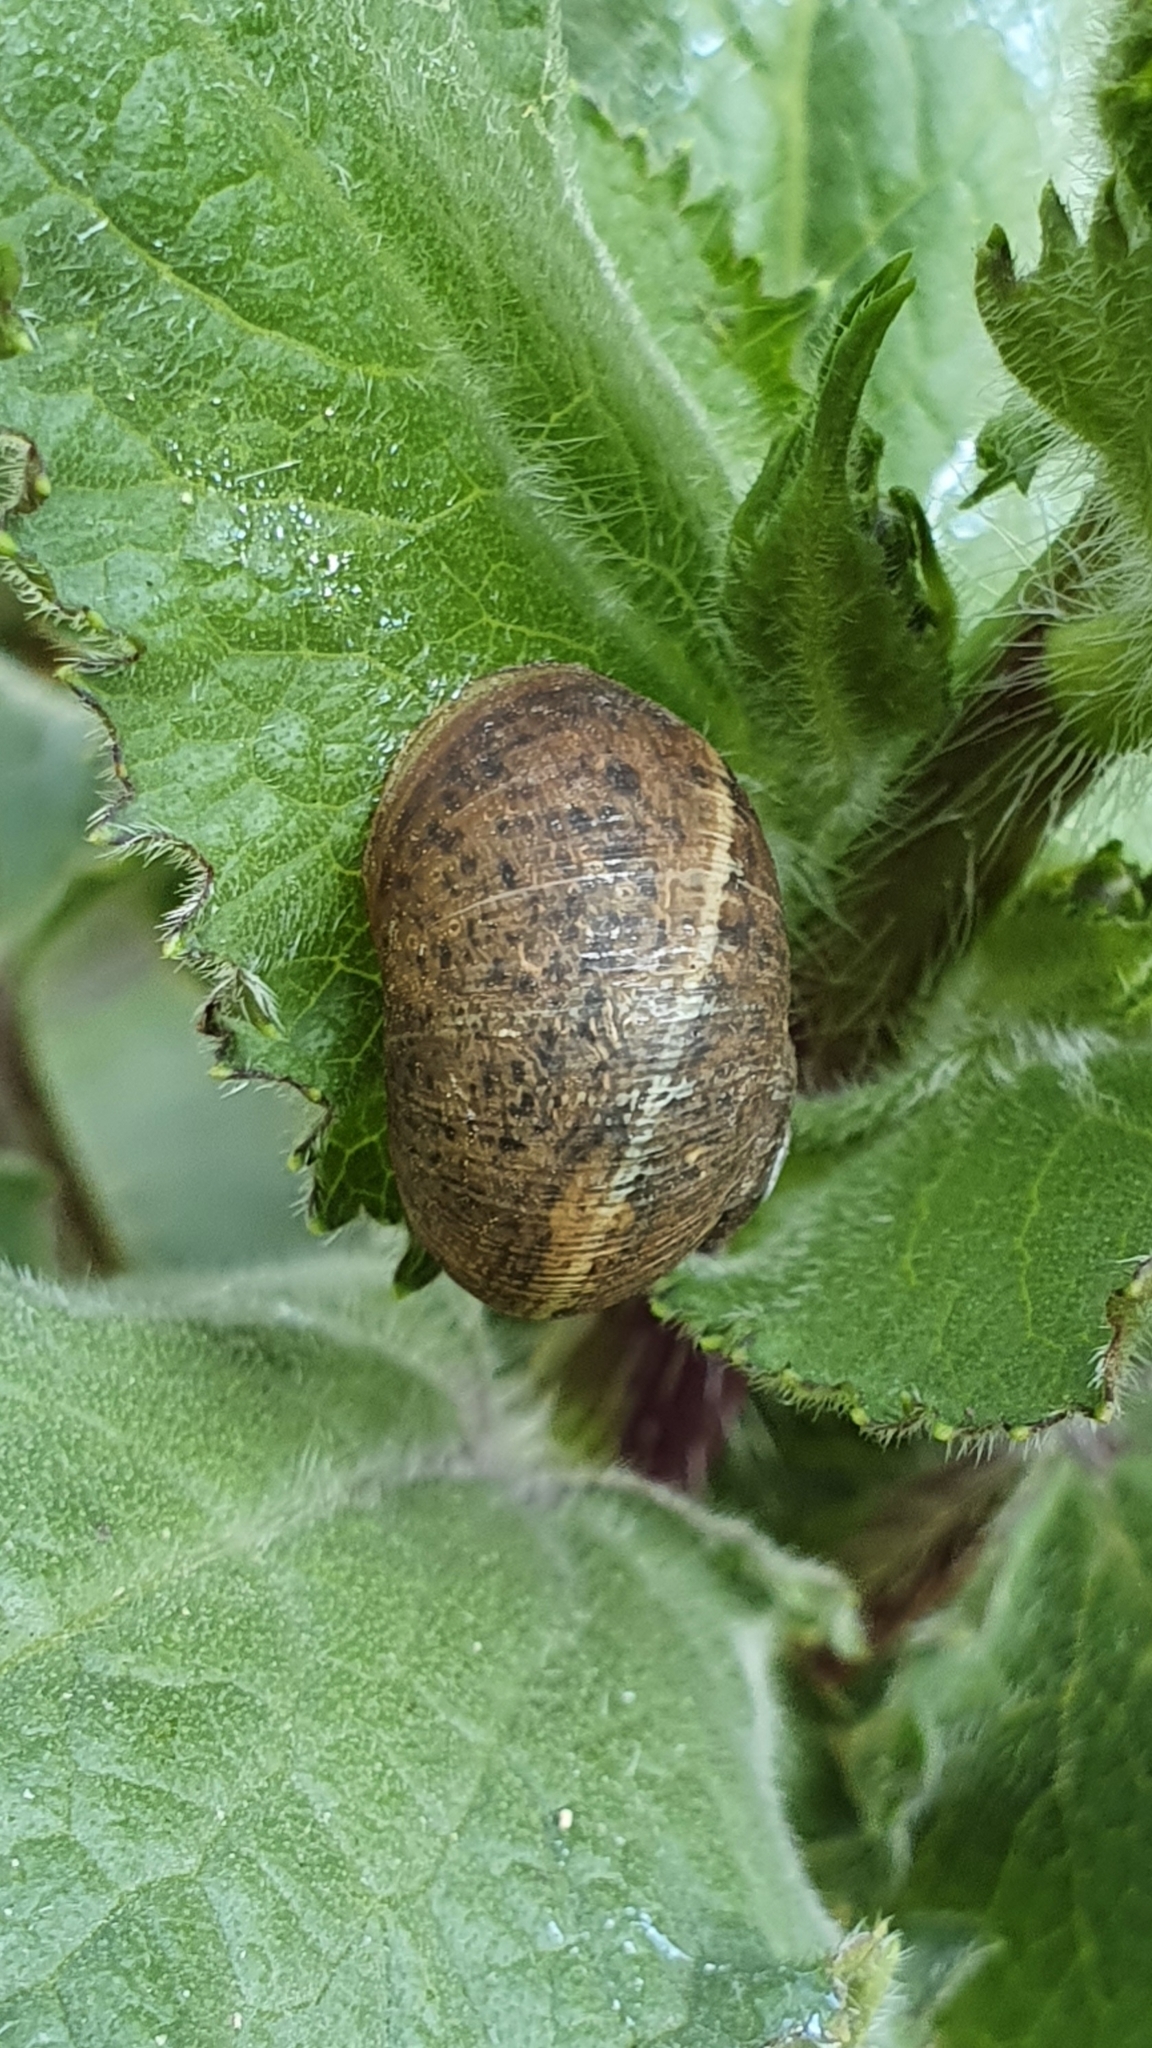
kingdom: Animalia
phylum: Mollusca
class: Gastropoda
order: Stylommatophora
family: Helicidae
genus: Cornu
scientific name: Cornu aspersum
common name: Brown garden snail
